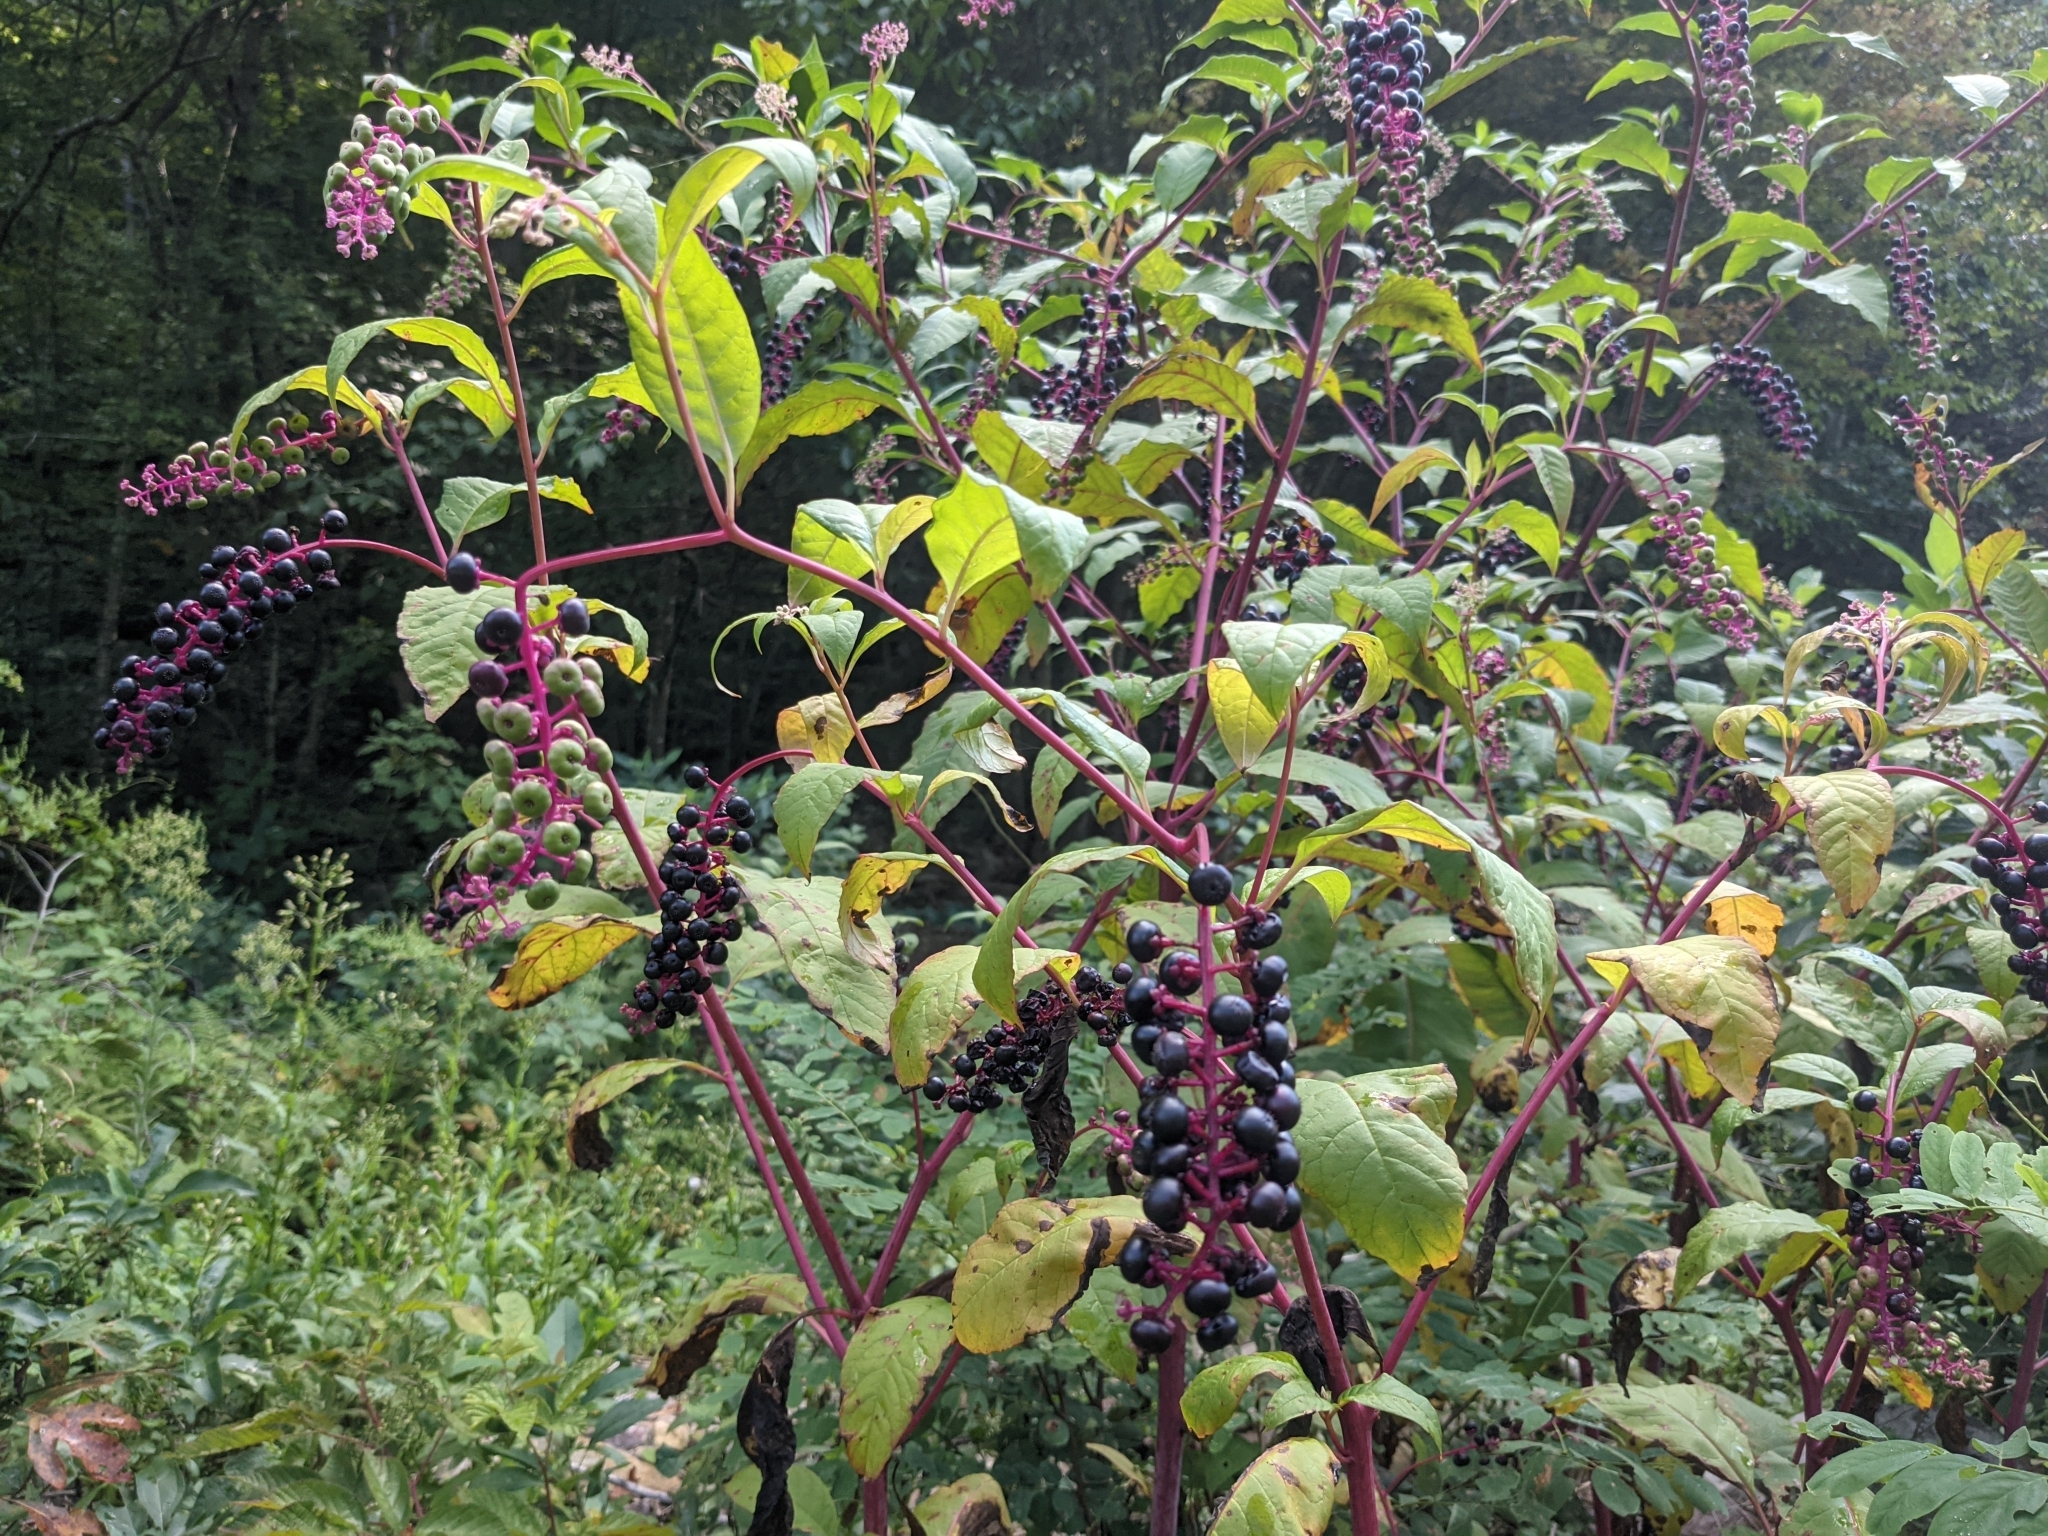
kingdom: Plantae
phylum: Tracheophyta
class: Magnoliopsida
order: Caryophyllales
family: Phytolaccaceae
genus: Phytolacca
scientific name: Phytolacca americana
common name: American pokeweed
